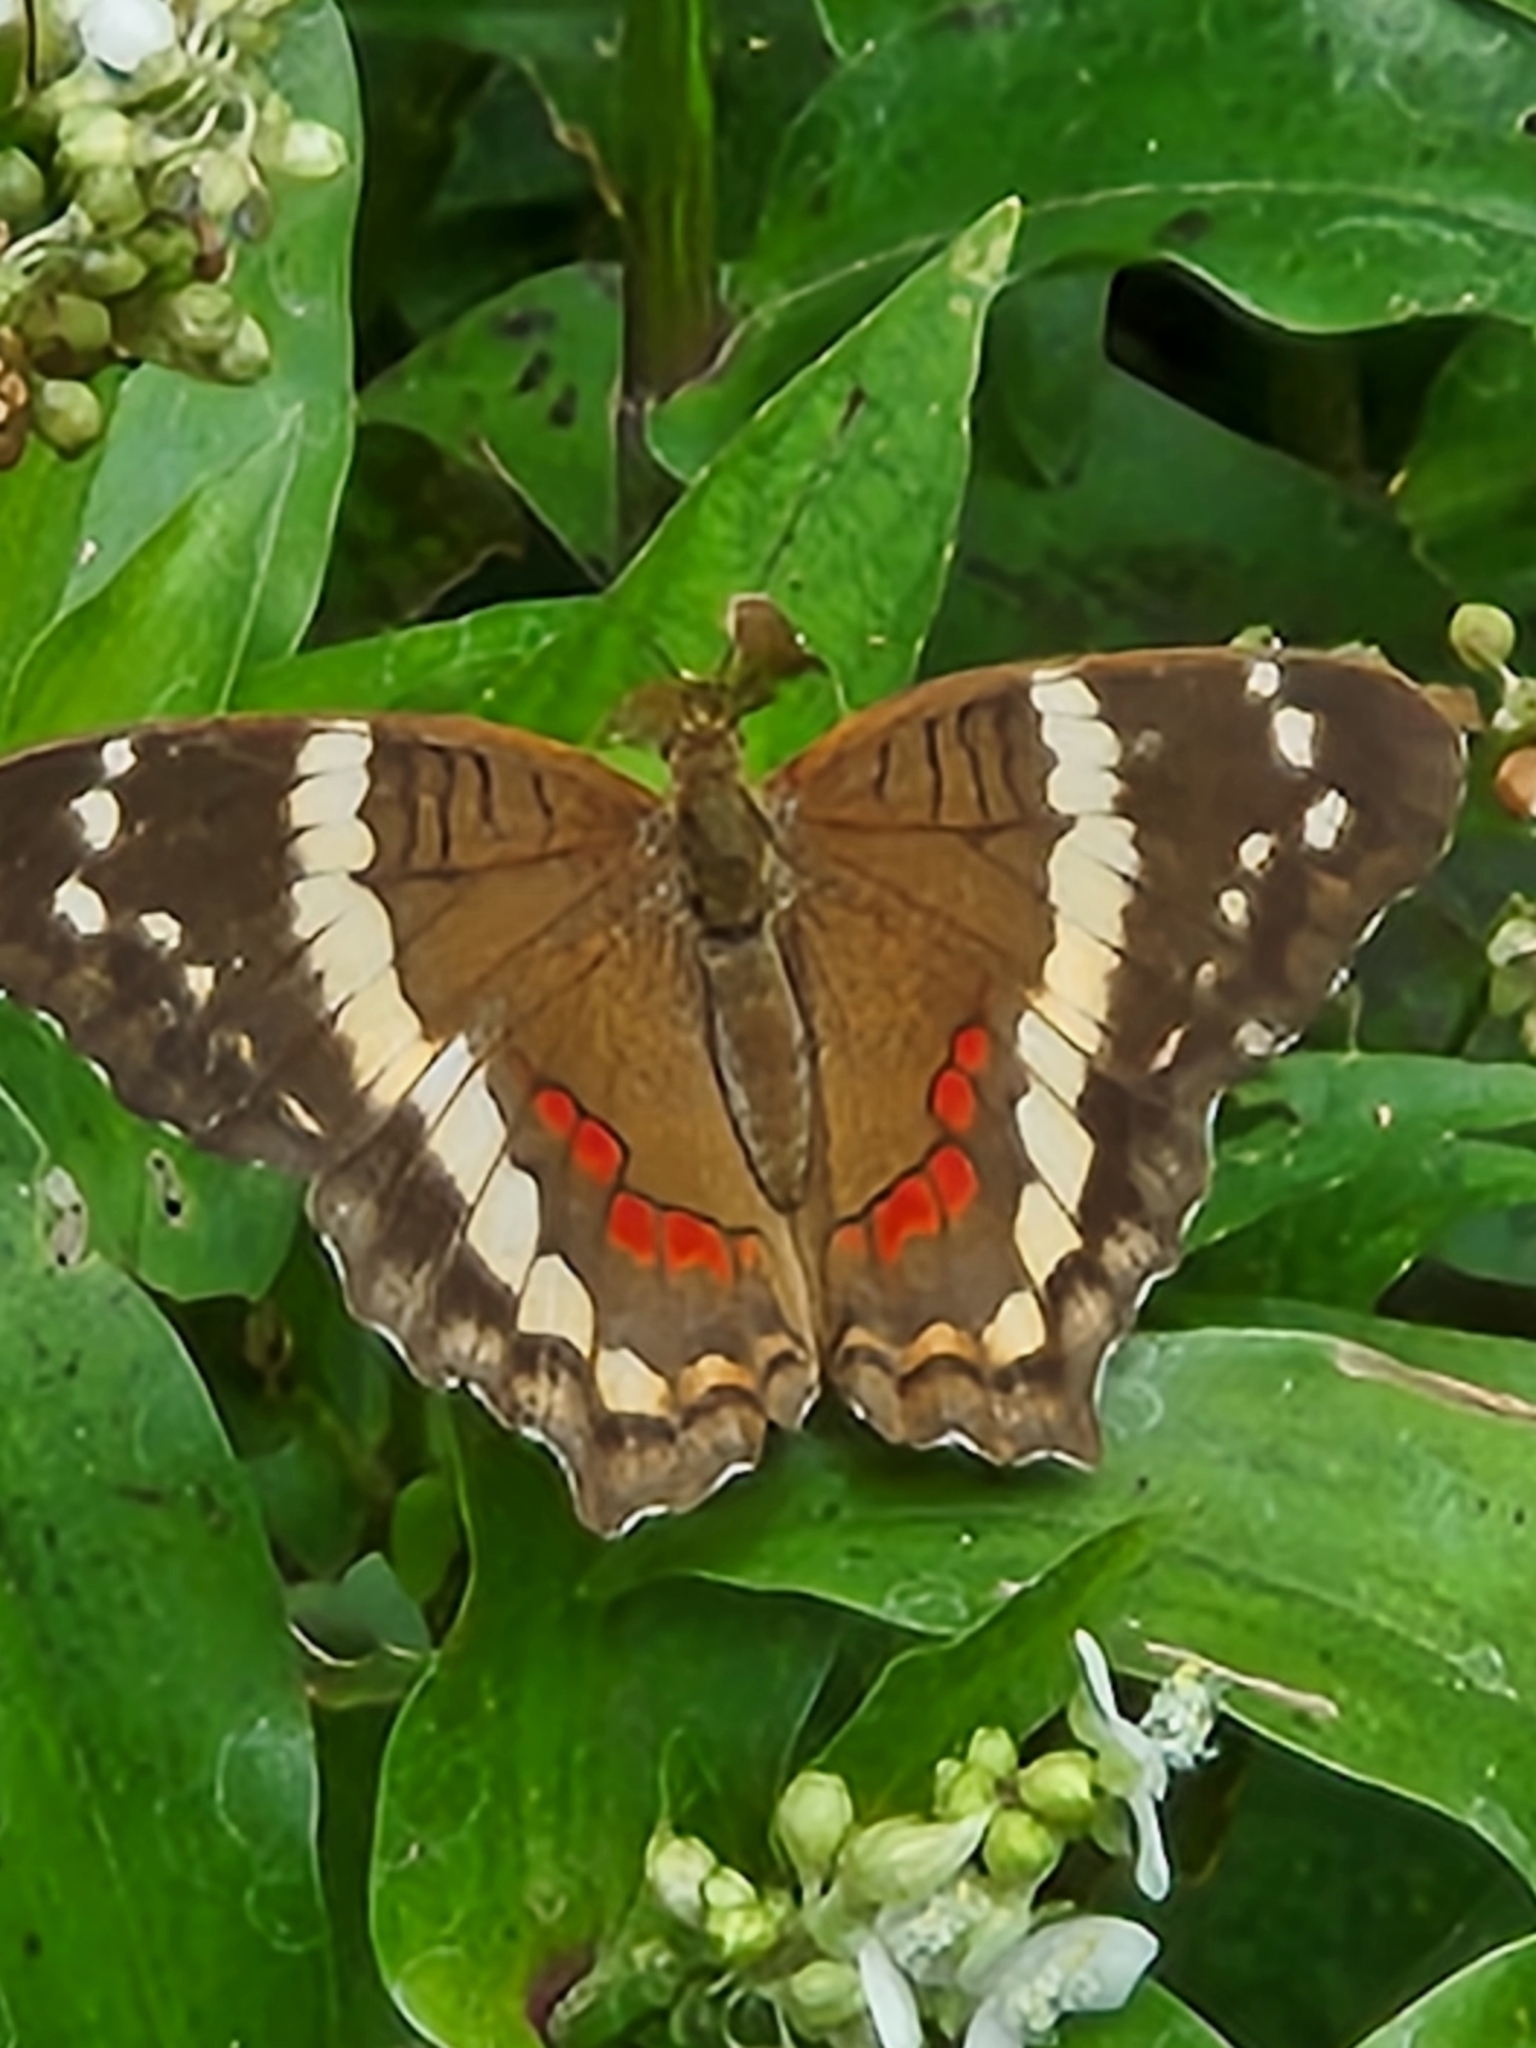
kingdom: Animalia
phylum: Arthropoda
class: Insecta
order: Lepidoptera
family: Nymphalidae
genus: Anartia
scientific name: Anartia fatima
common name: Banded peacock
